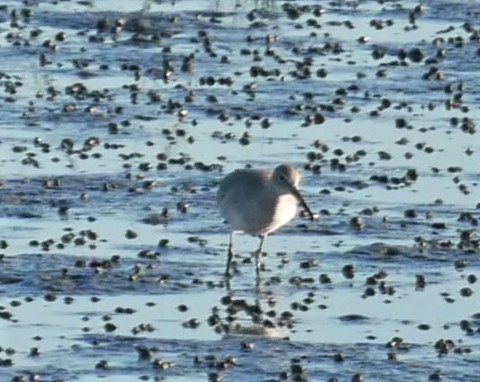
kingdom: Animalia
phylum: Chordata
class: Aves
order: Charadriiformes
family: Scolopacidae
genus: Tringa
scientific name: Tringa semipalmata
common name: Willet
